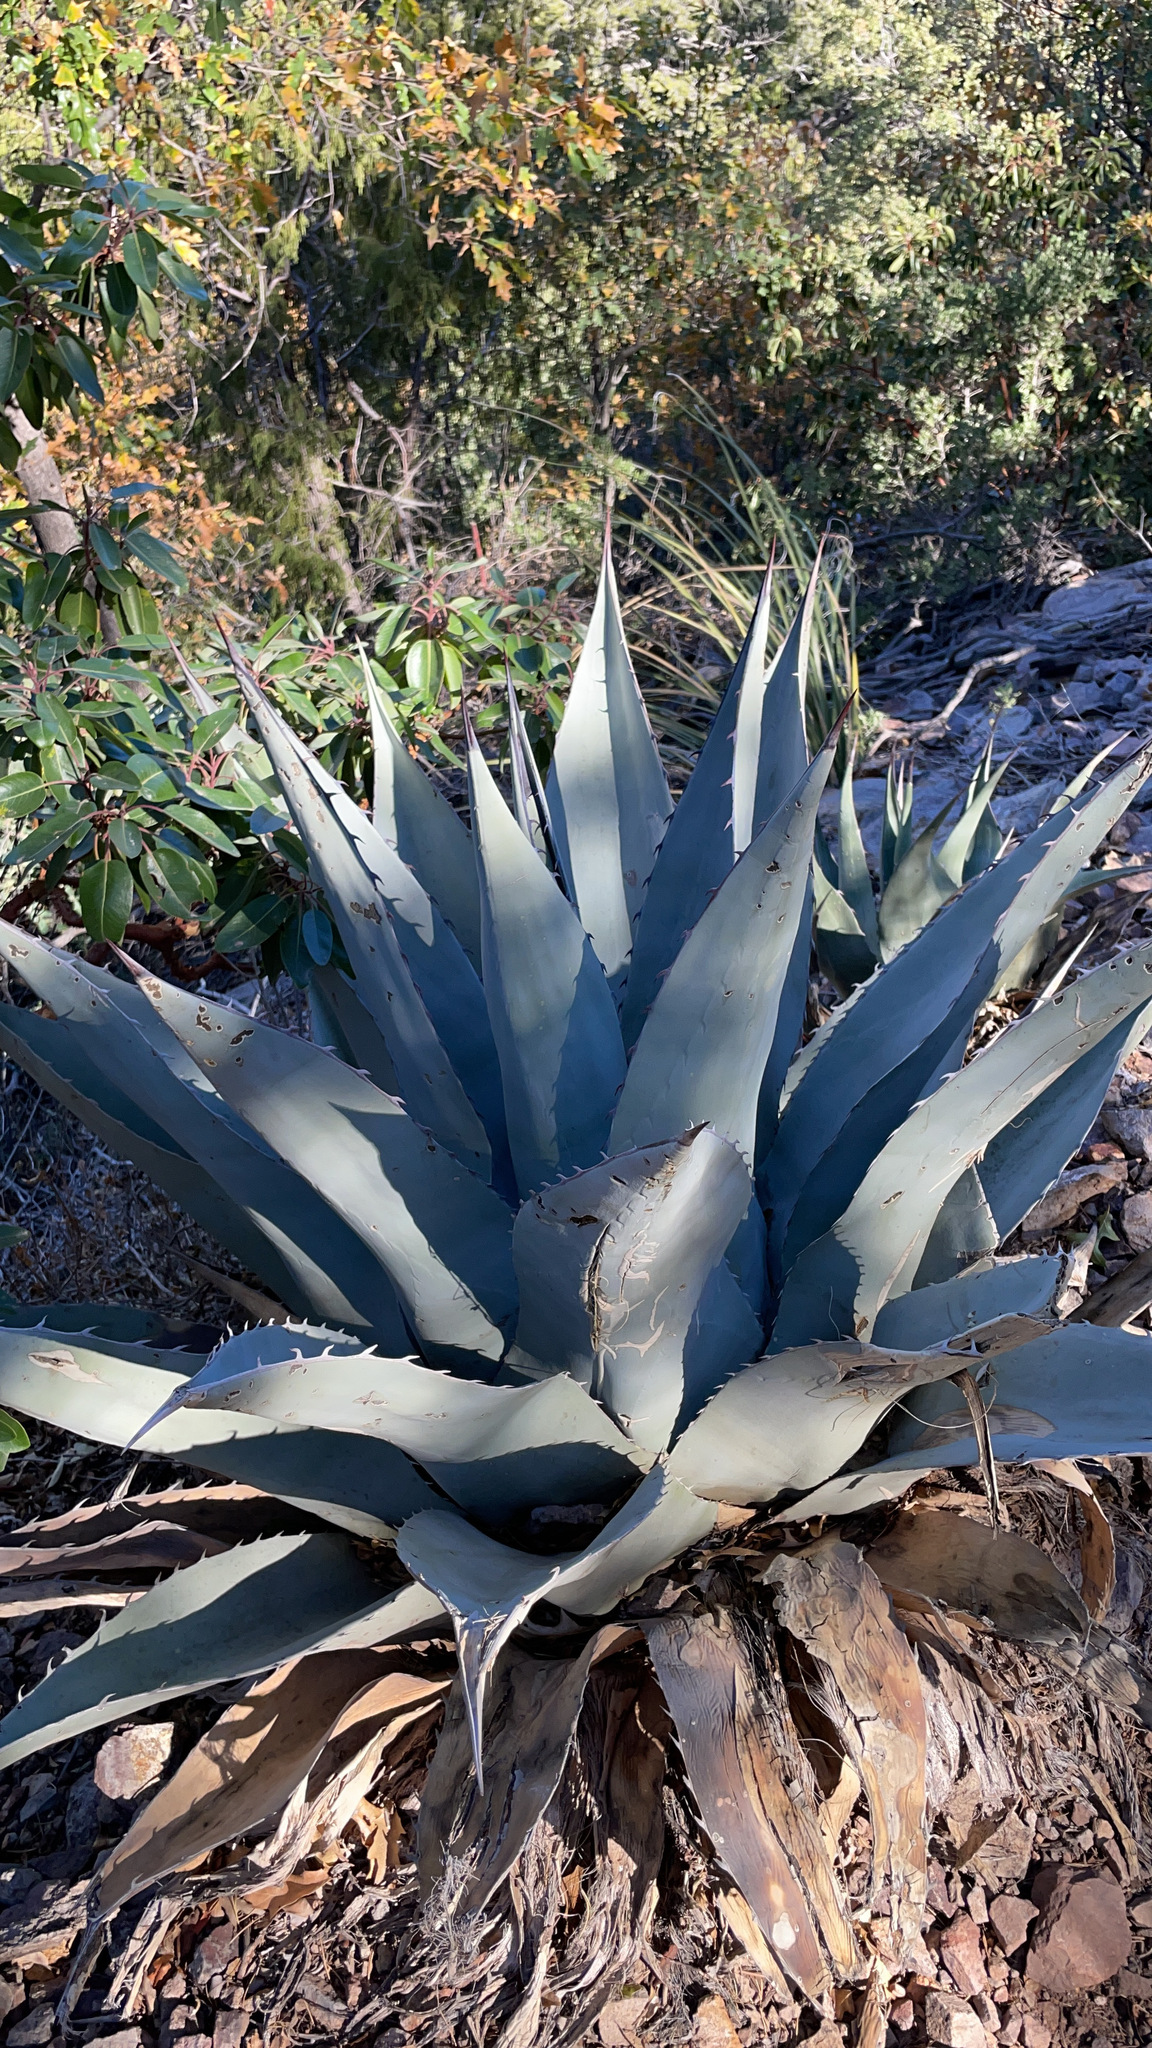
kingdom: Plantae
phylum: Tracheophyta
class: Liliopsida
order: Asparagales
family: Asparagaceae
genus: Agave
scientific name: Agave havardiana
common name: Havard agave
